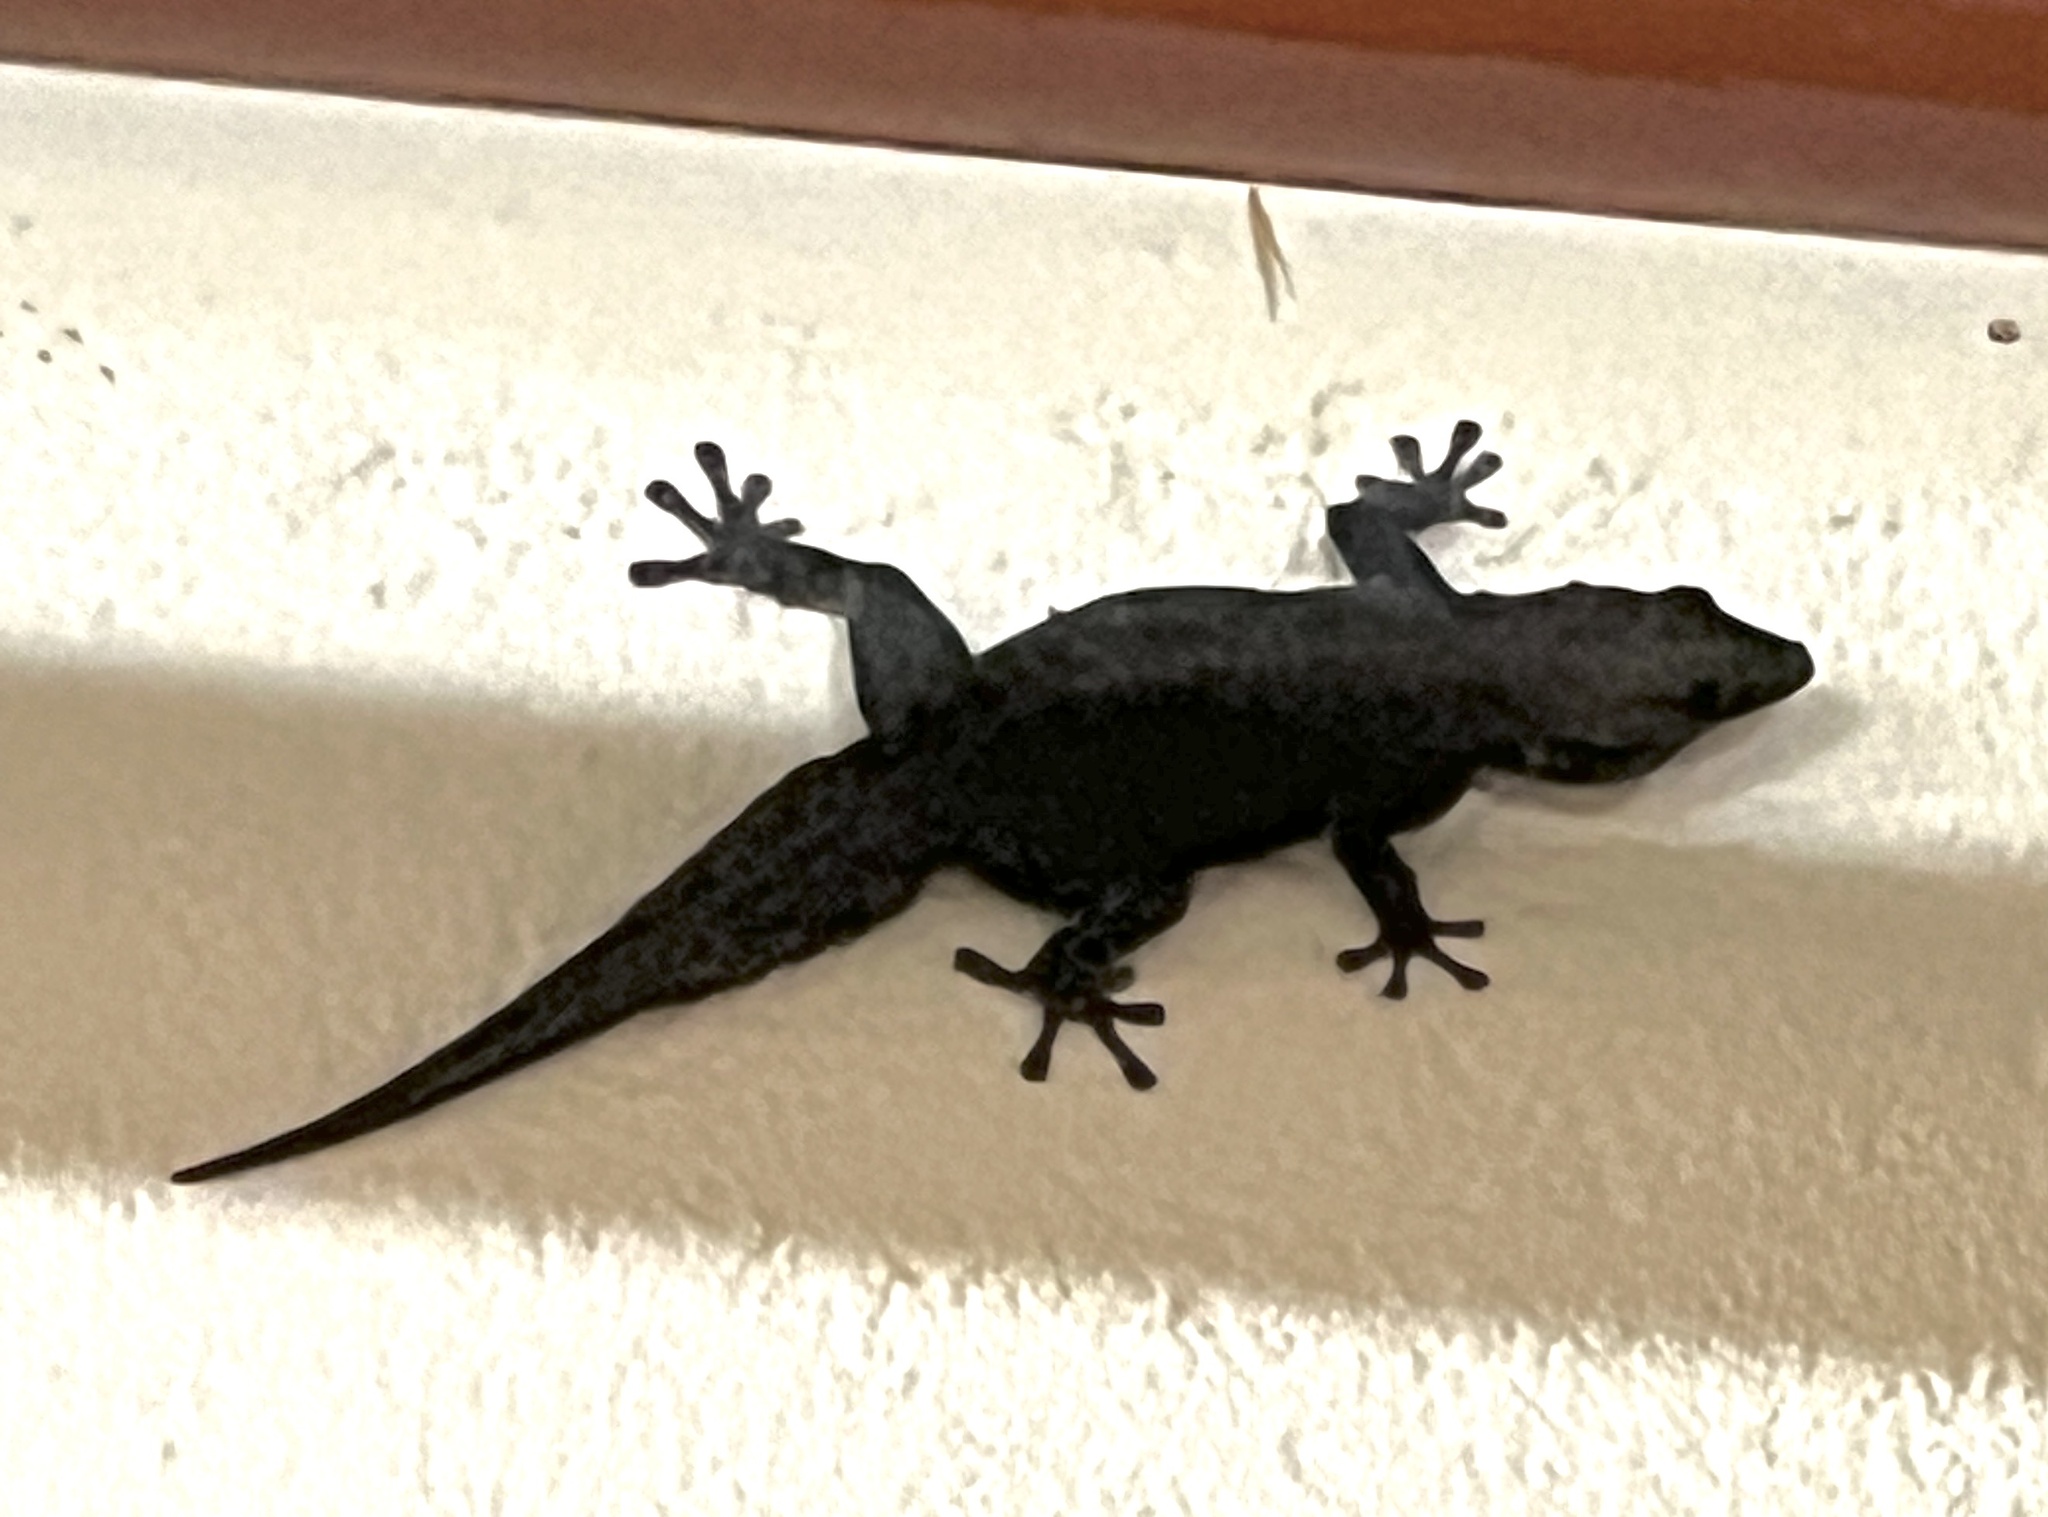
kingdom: Animalia
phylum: Chordata
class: Squamata
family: Gekkonidae
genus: Rhoptropus
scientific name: Rhoptropus barnardi
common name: Barnard’s namib day gecko
